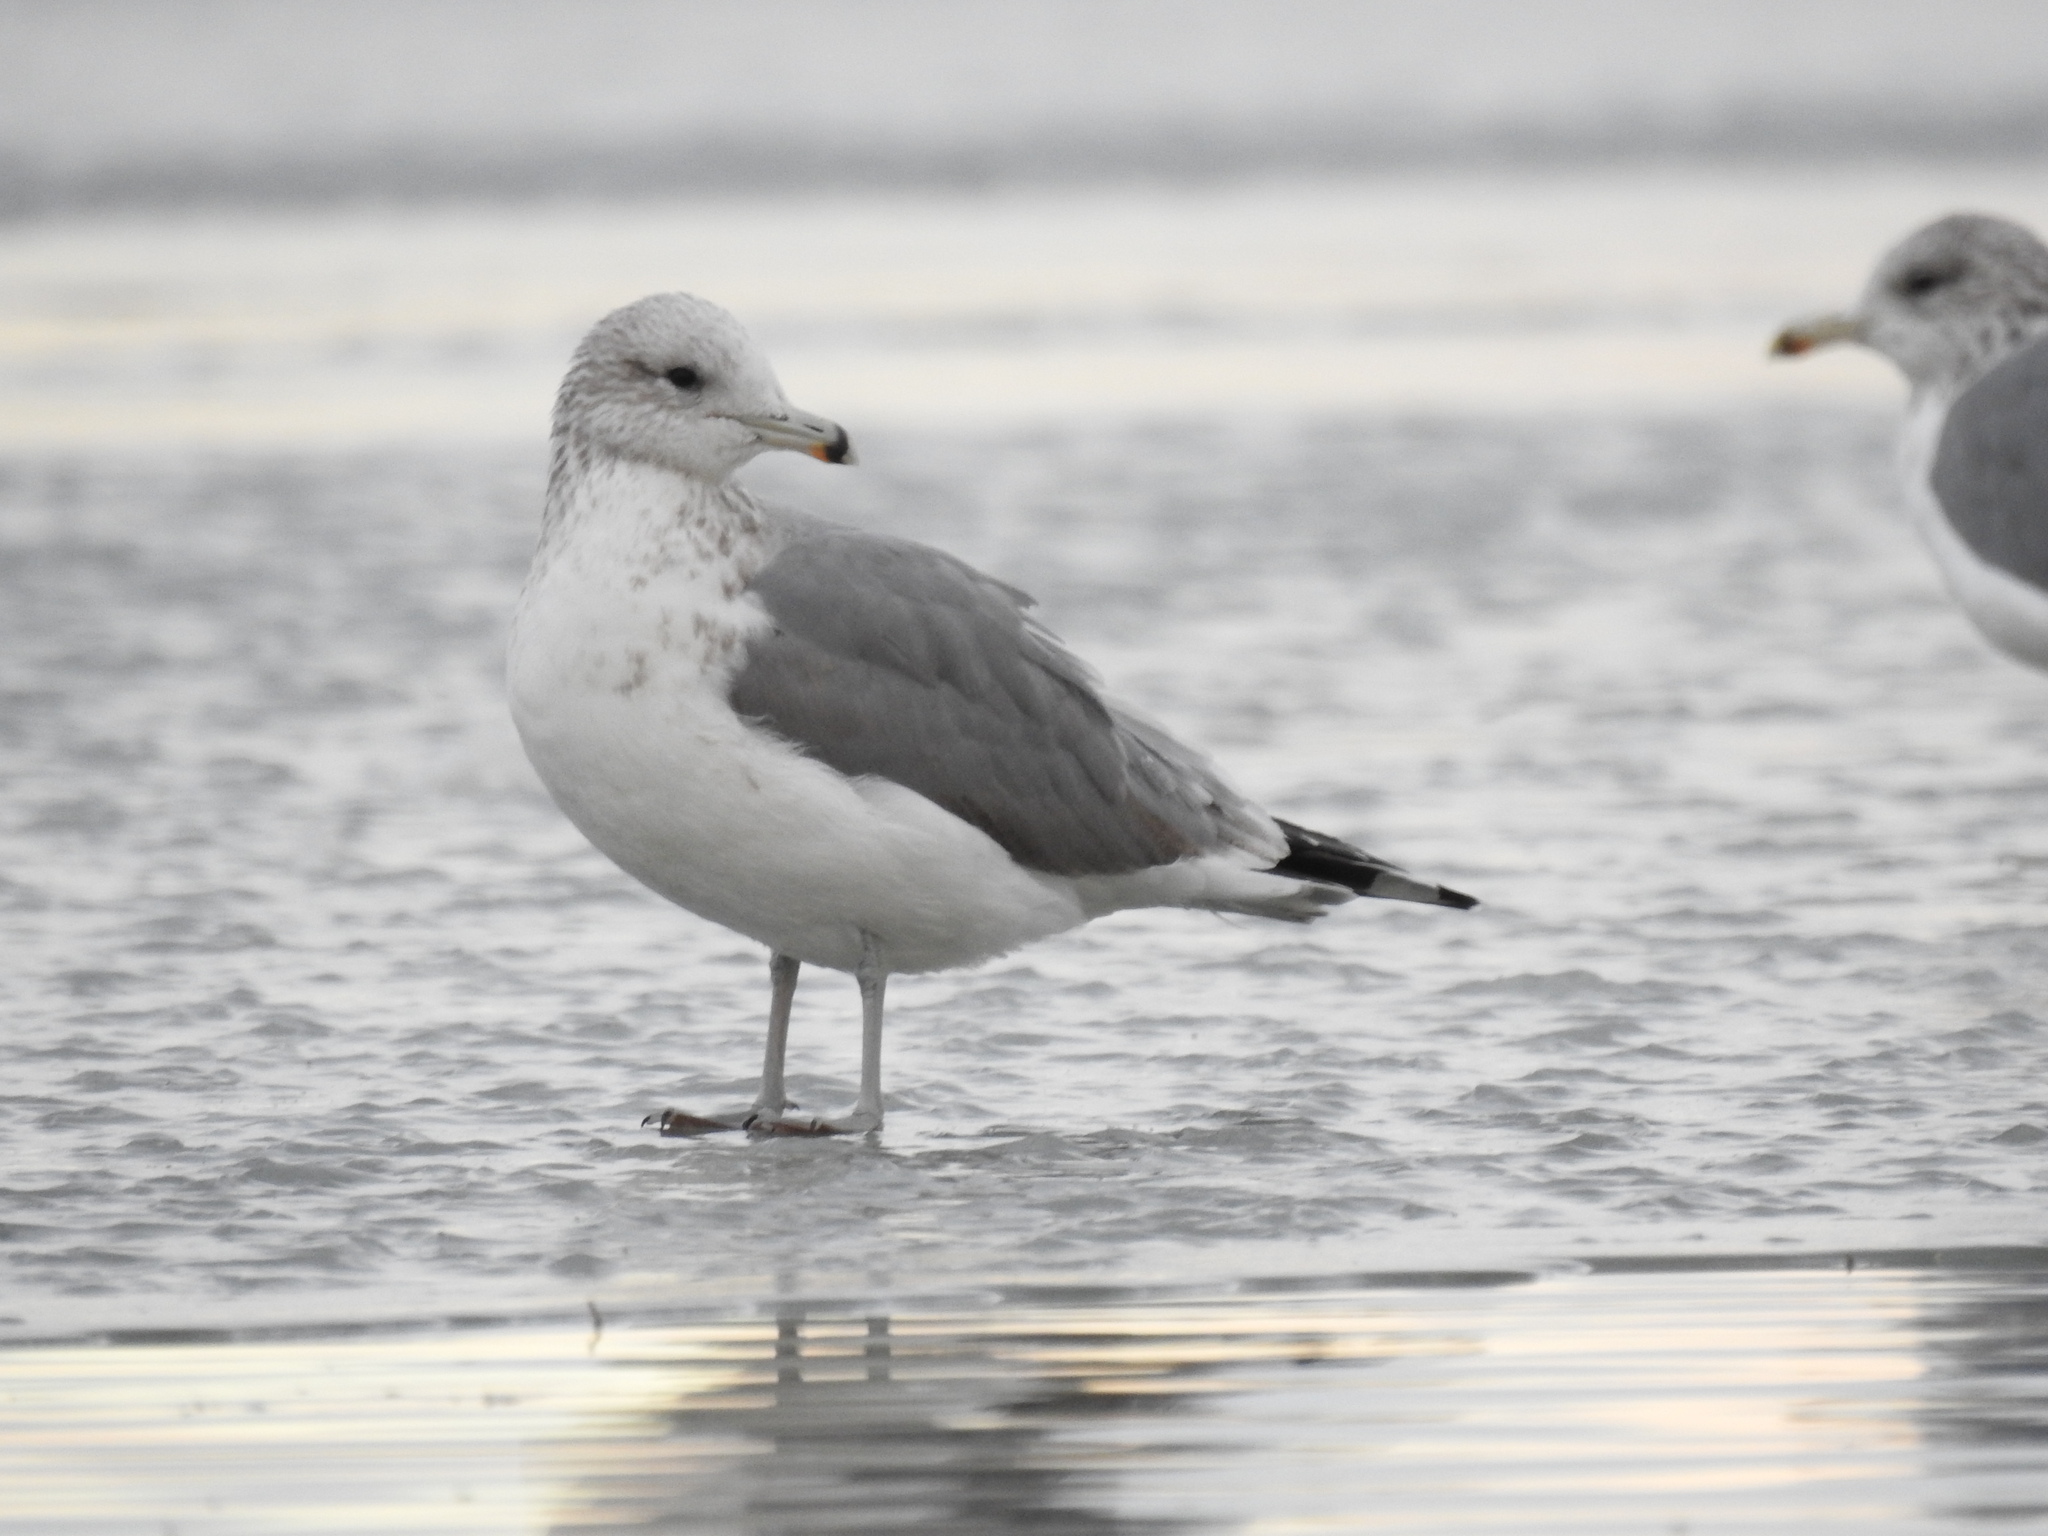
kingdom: Animalia
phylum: Chordata
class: Aves
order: Charadriiformes
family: Laridae
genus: Larus
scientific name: Larus californicus
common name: California gull
